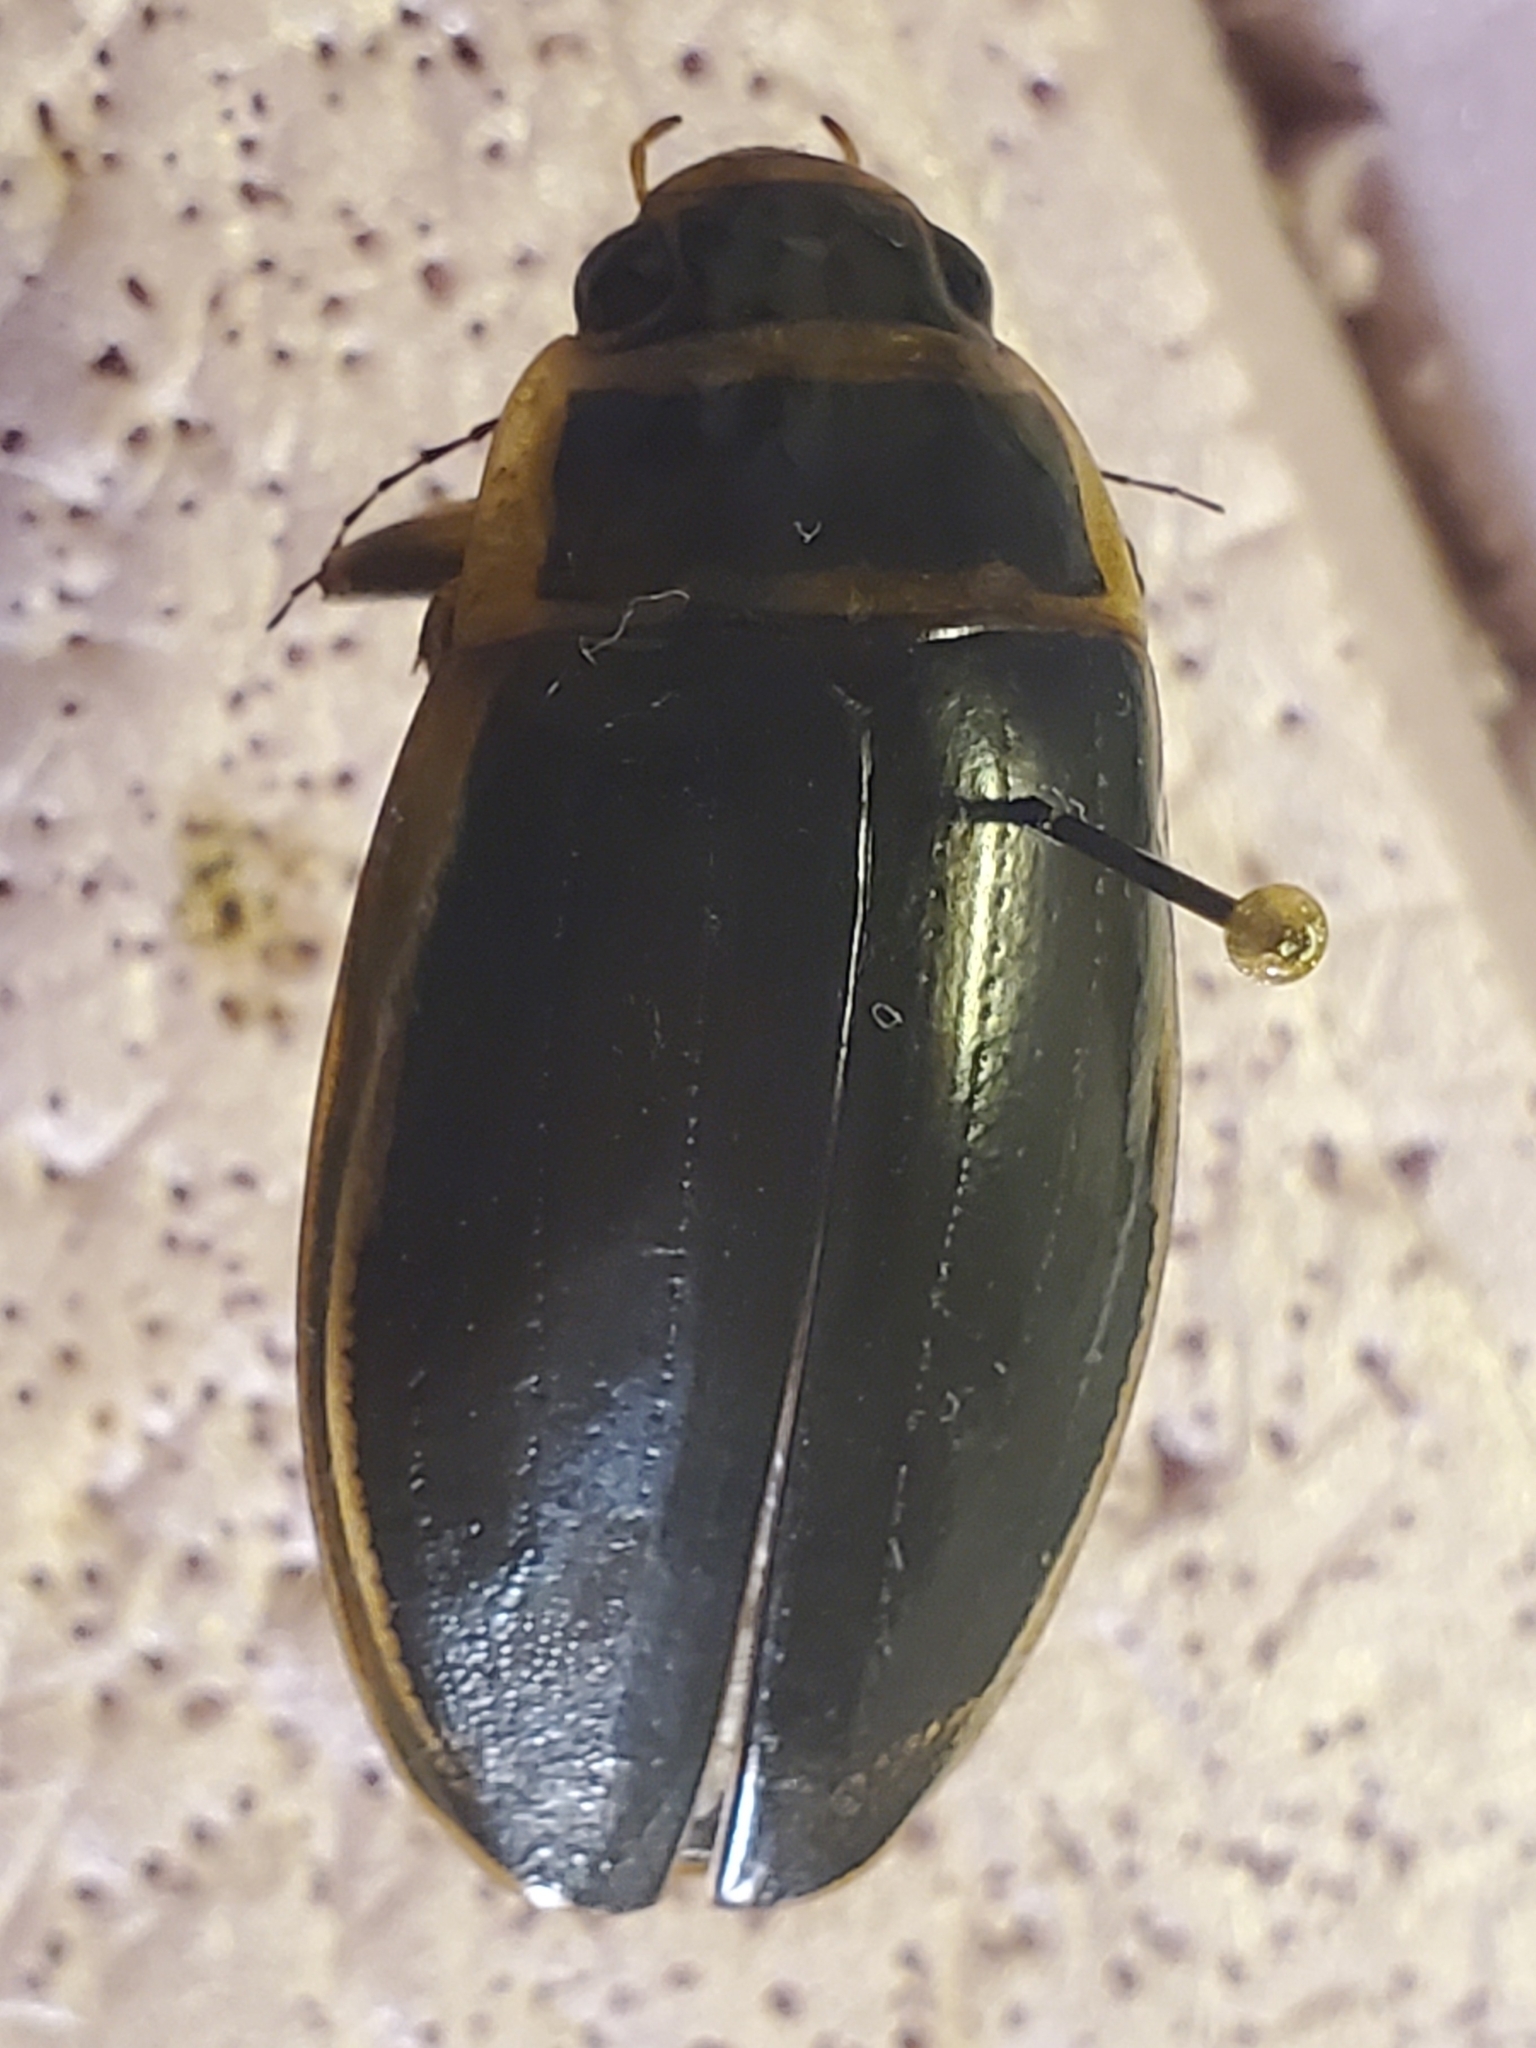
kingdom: Animalia
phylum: Arthropoda
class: Insecta
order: Coleoptera
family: Dytiscidae
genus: Dytiscus
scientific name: Dytiscus circumcinctus
